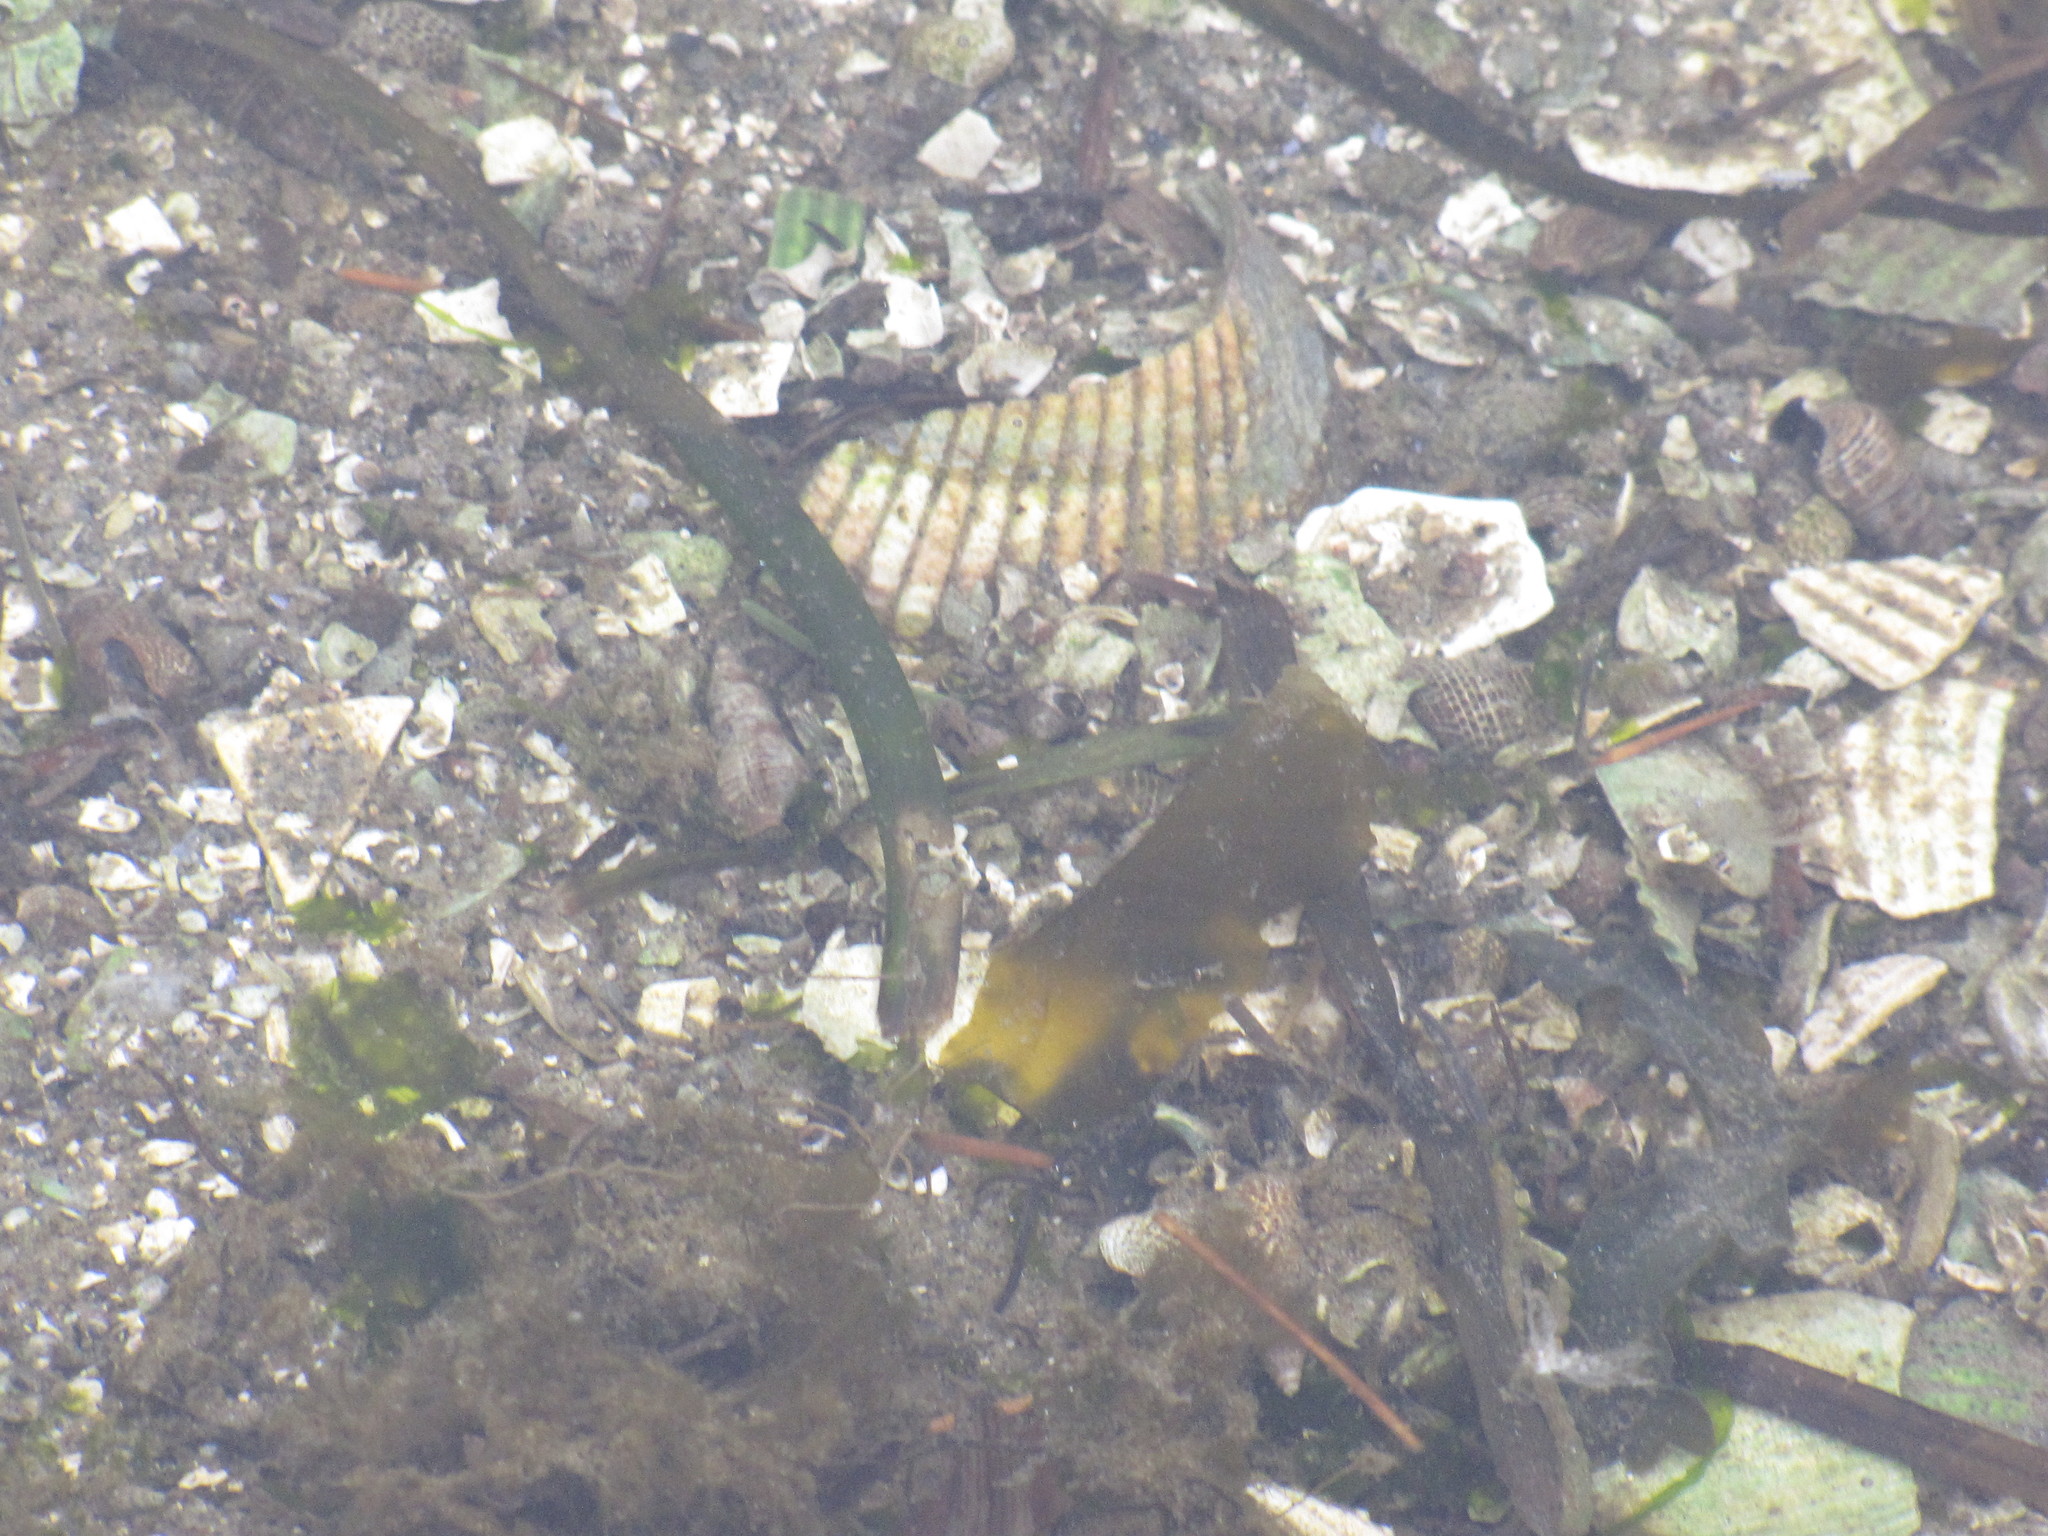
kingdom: Animalia
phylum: Mollusca
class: Bivalvia
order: Cardiida
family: Cardiidae
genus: Clinocardium
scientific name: Clinocardium nuttallii
